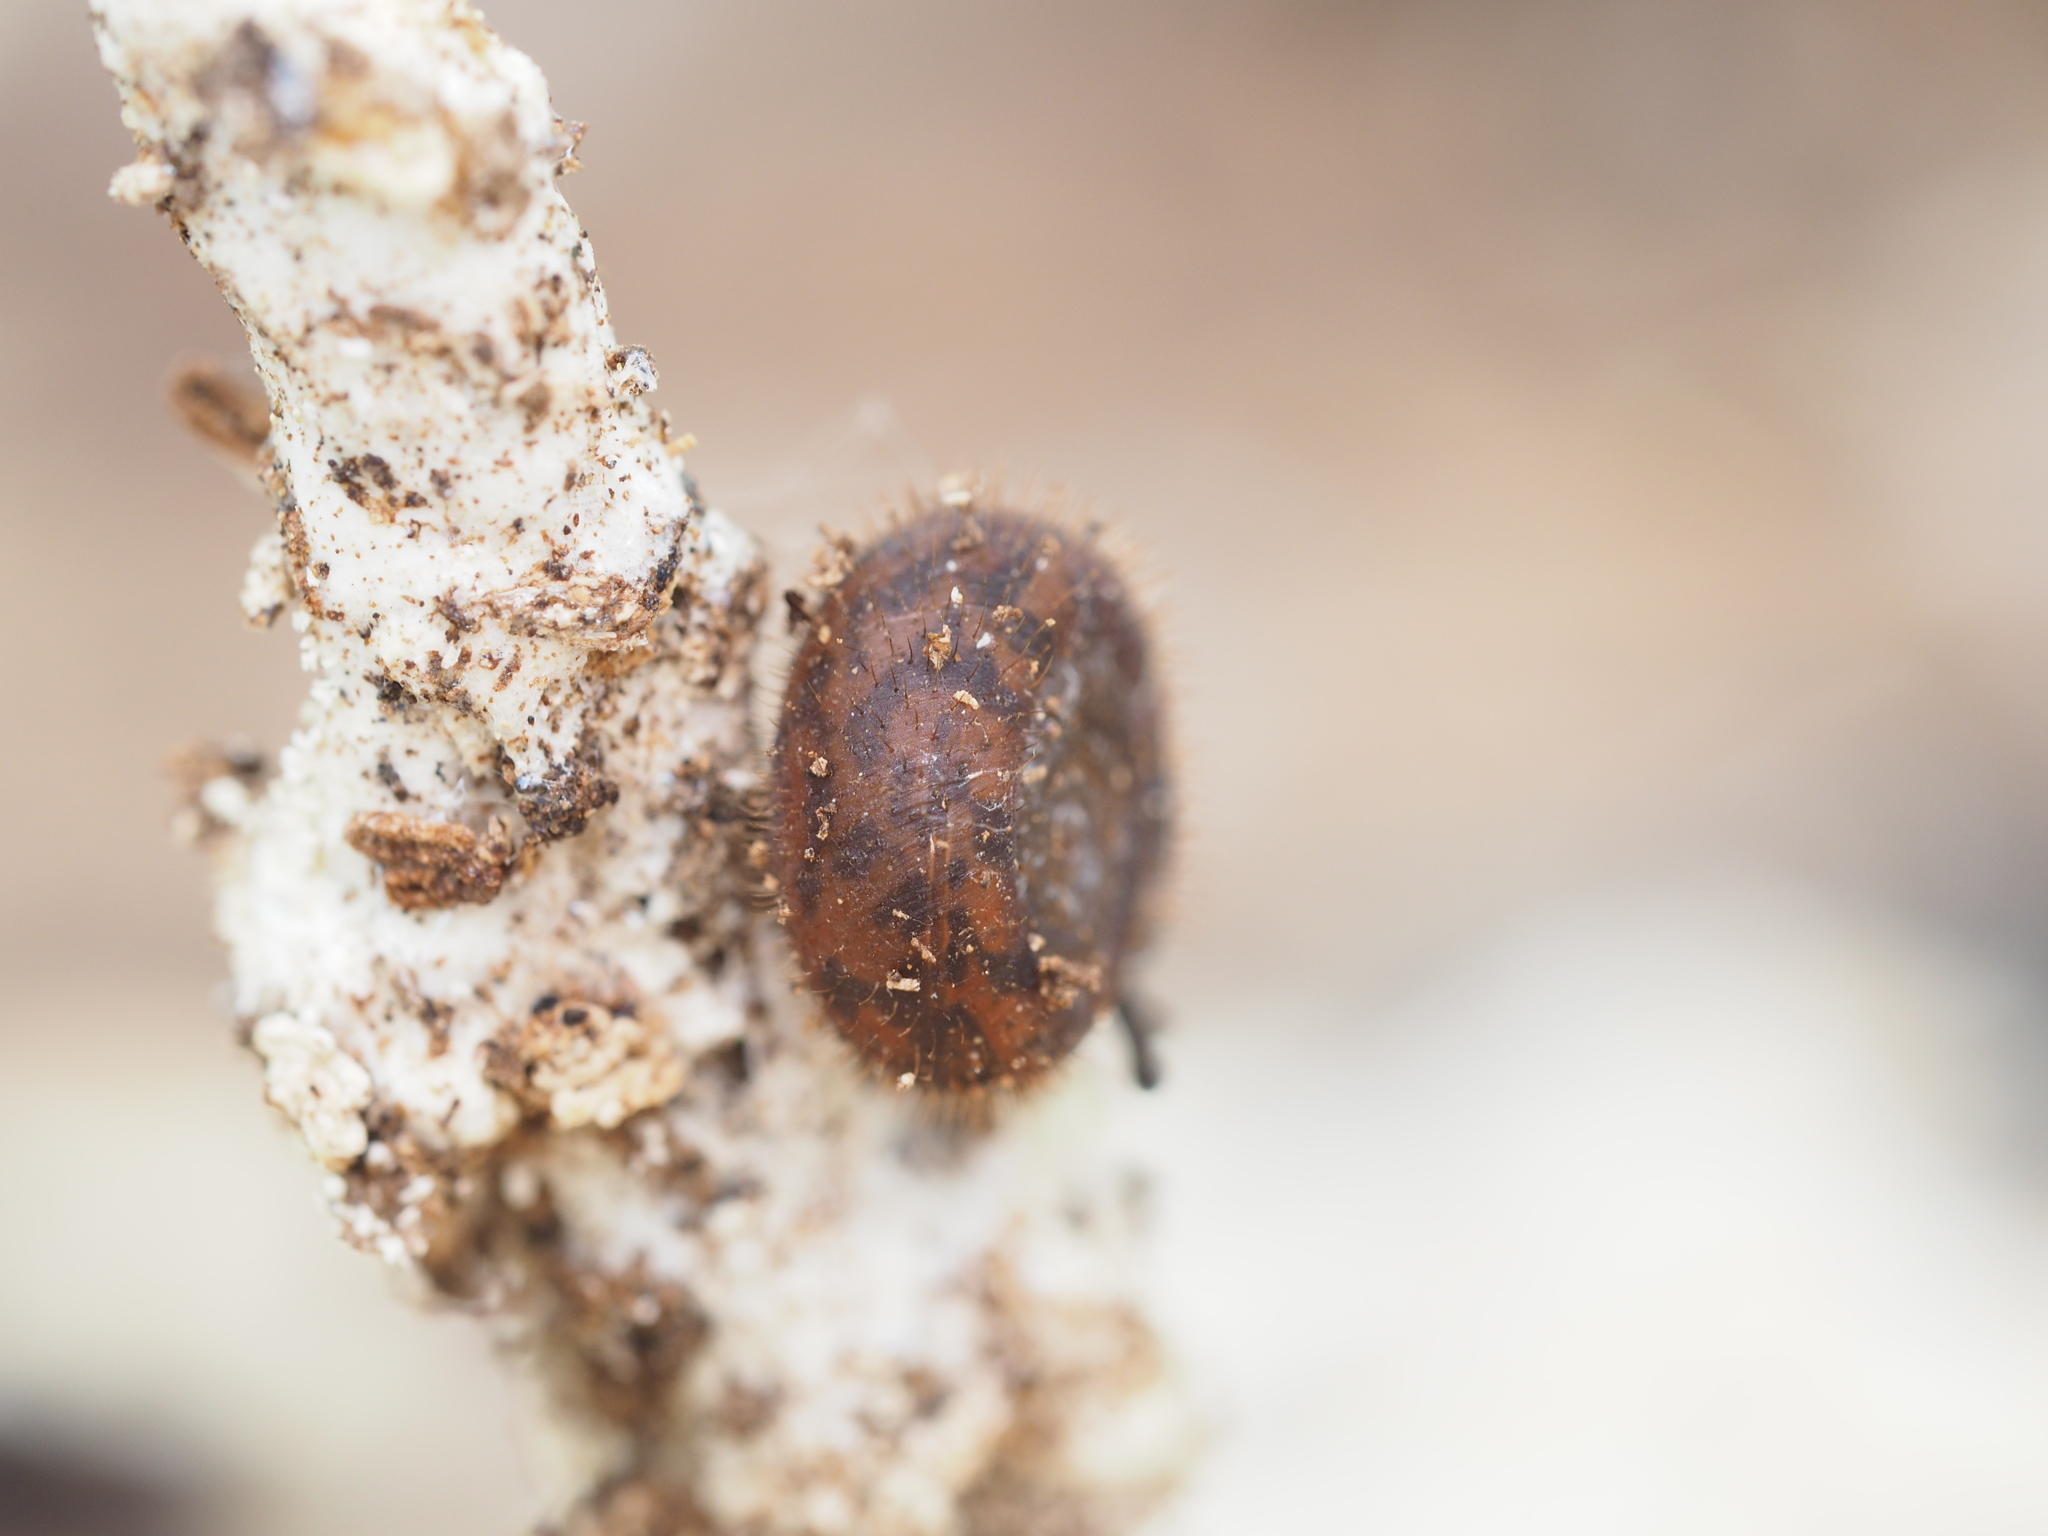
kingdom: Animalia
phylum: Mollusca
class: Gastropoda
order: Stylommatophora
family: Helicodontidae
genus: Helicodonta
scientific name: Helicodonta obvoluta
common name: Cheese snail
